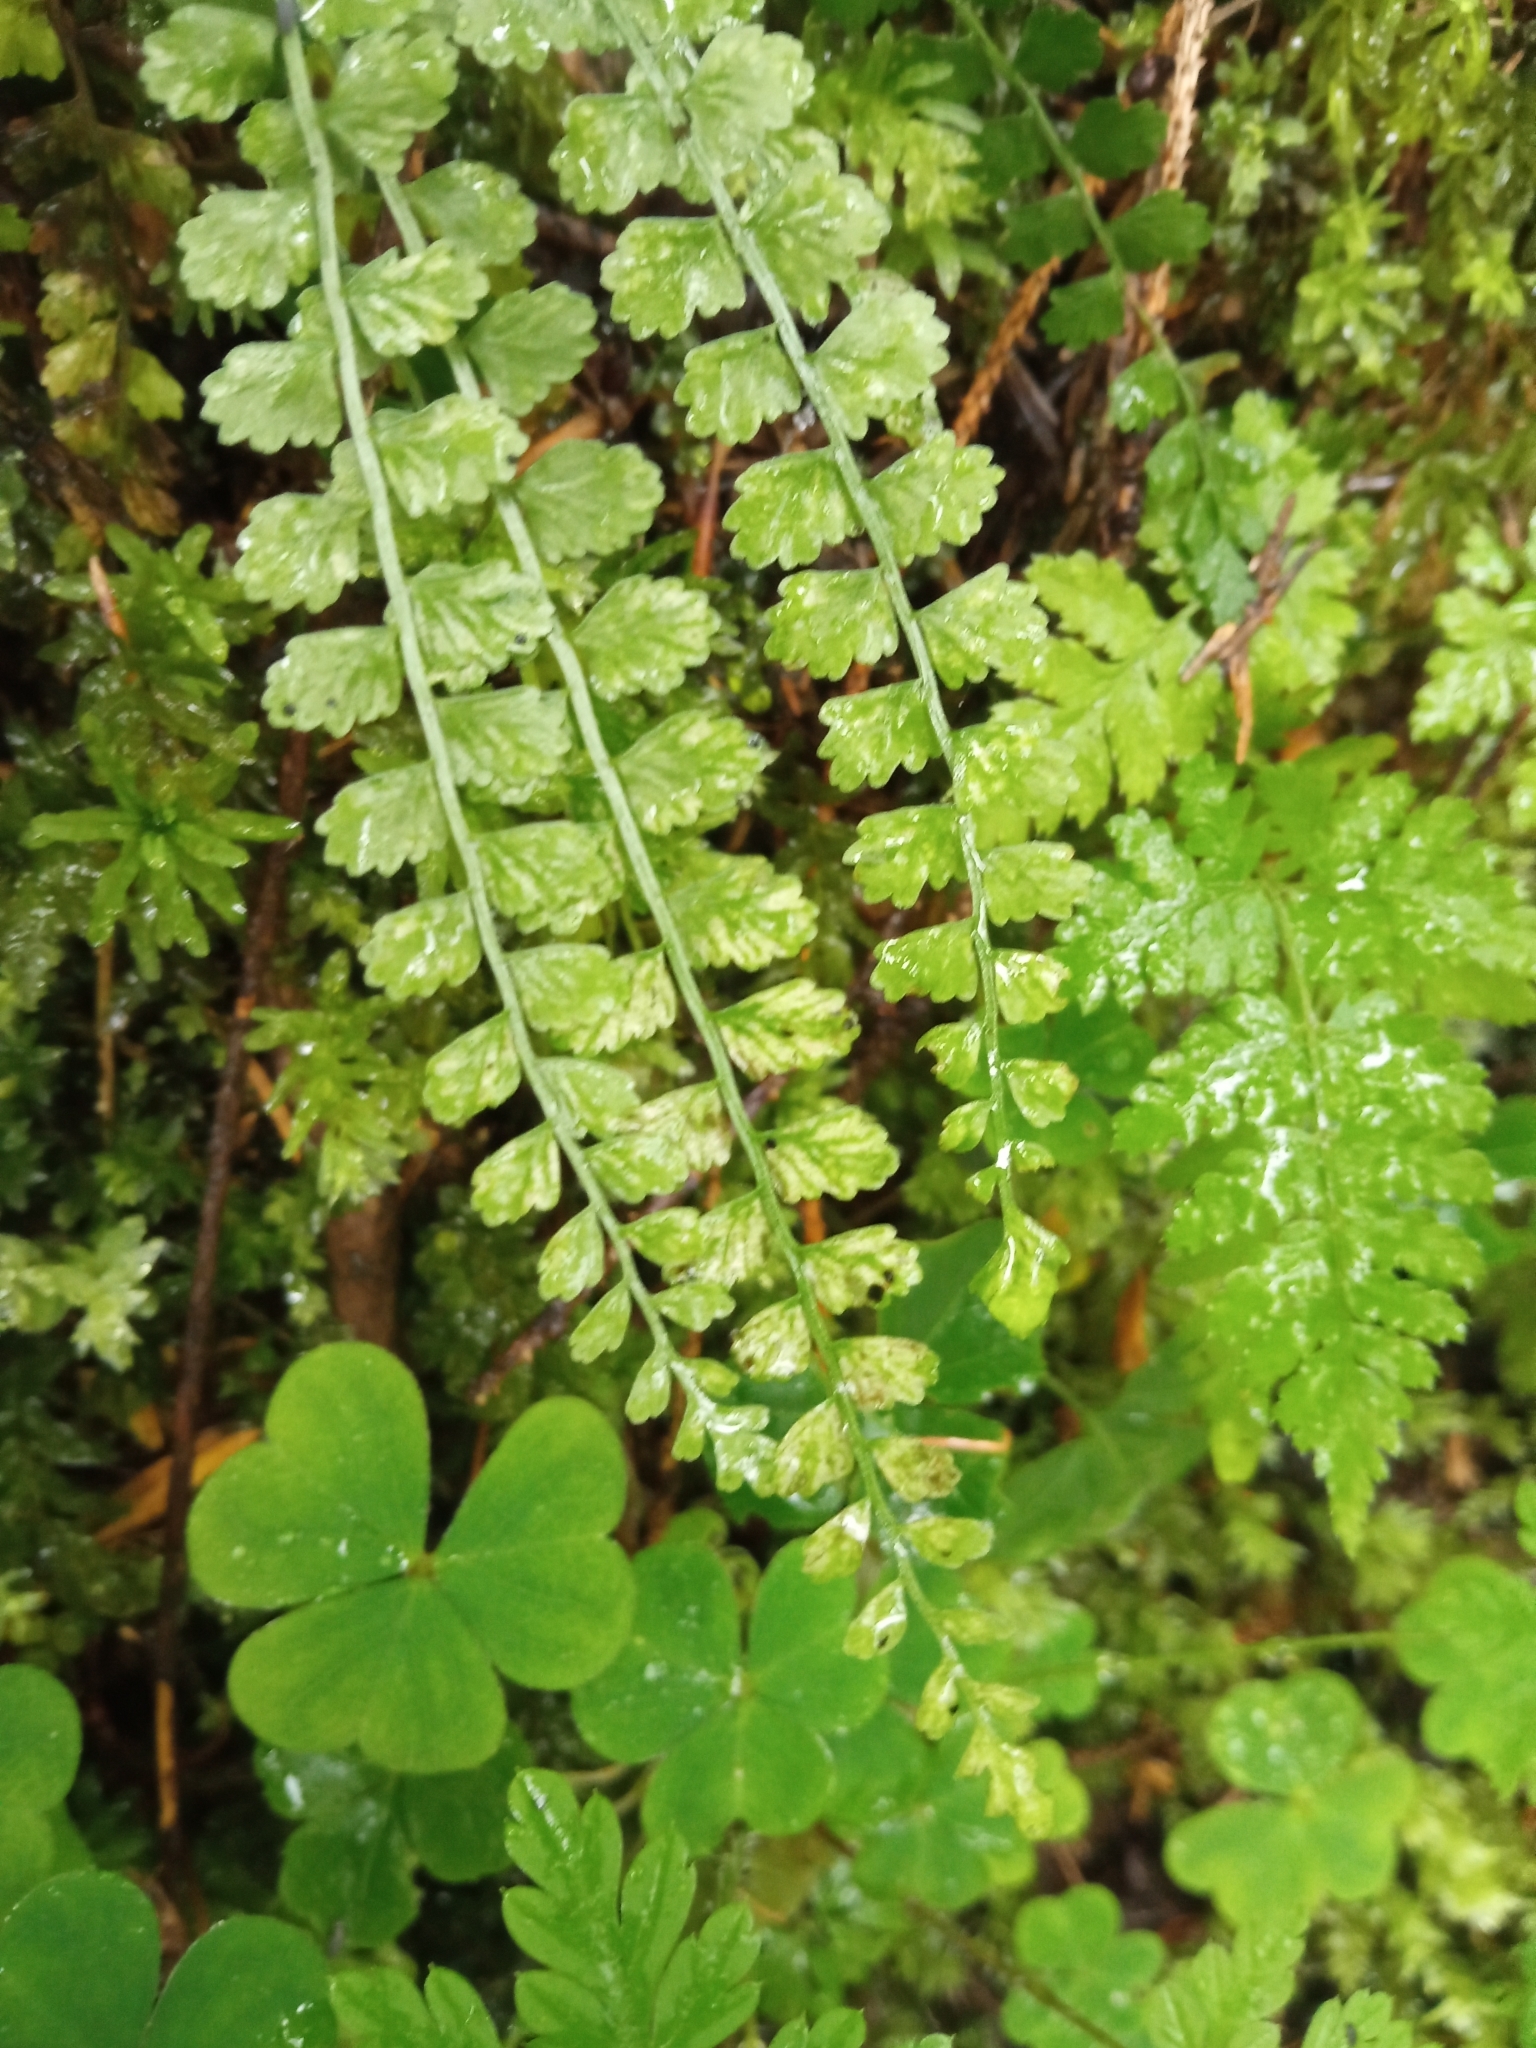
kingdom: Plantae
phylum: Tracheophyta
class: Polypodiopsida
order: Polypodiales
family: Aspleniaceae
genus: Asplenium
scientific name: Asplenium viride
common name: Green spleenwort
